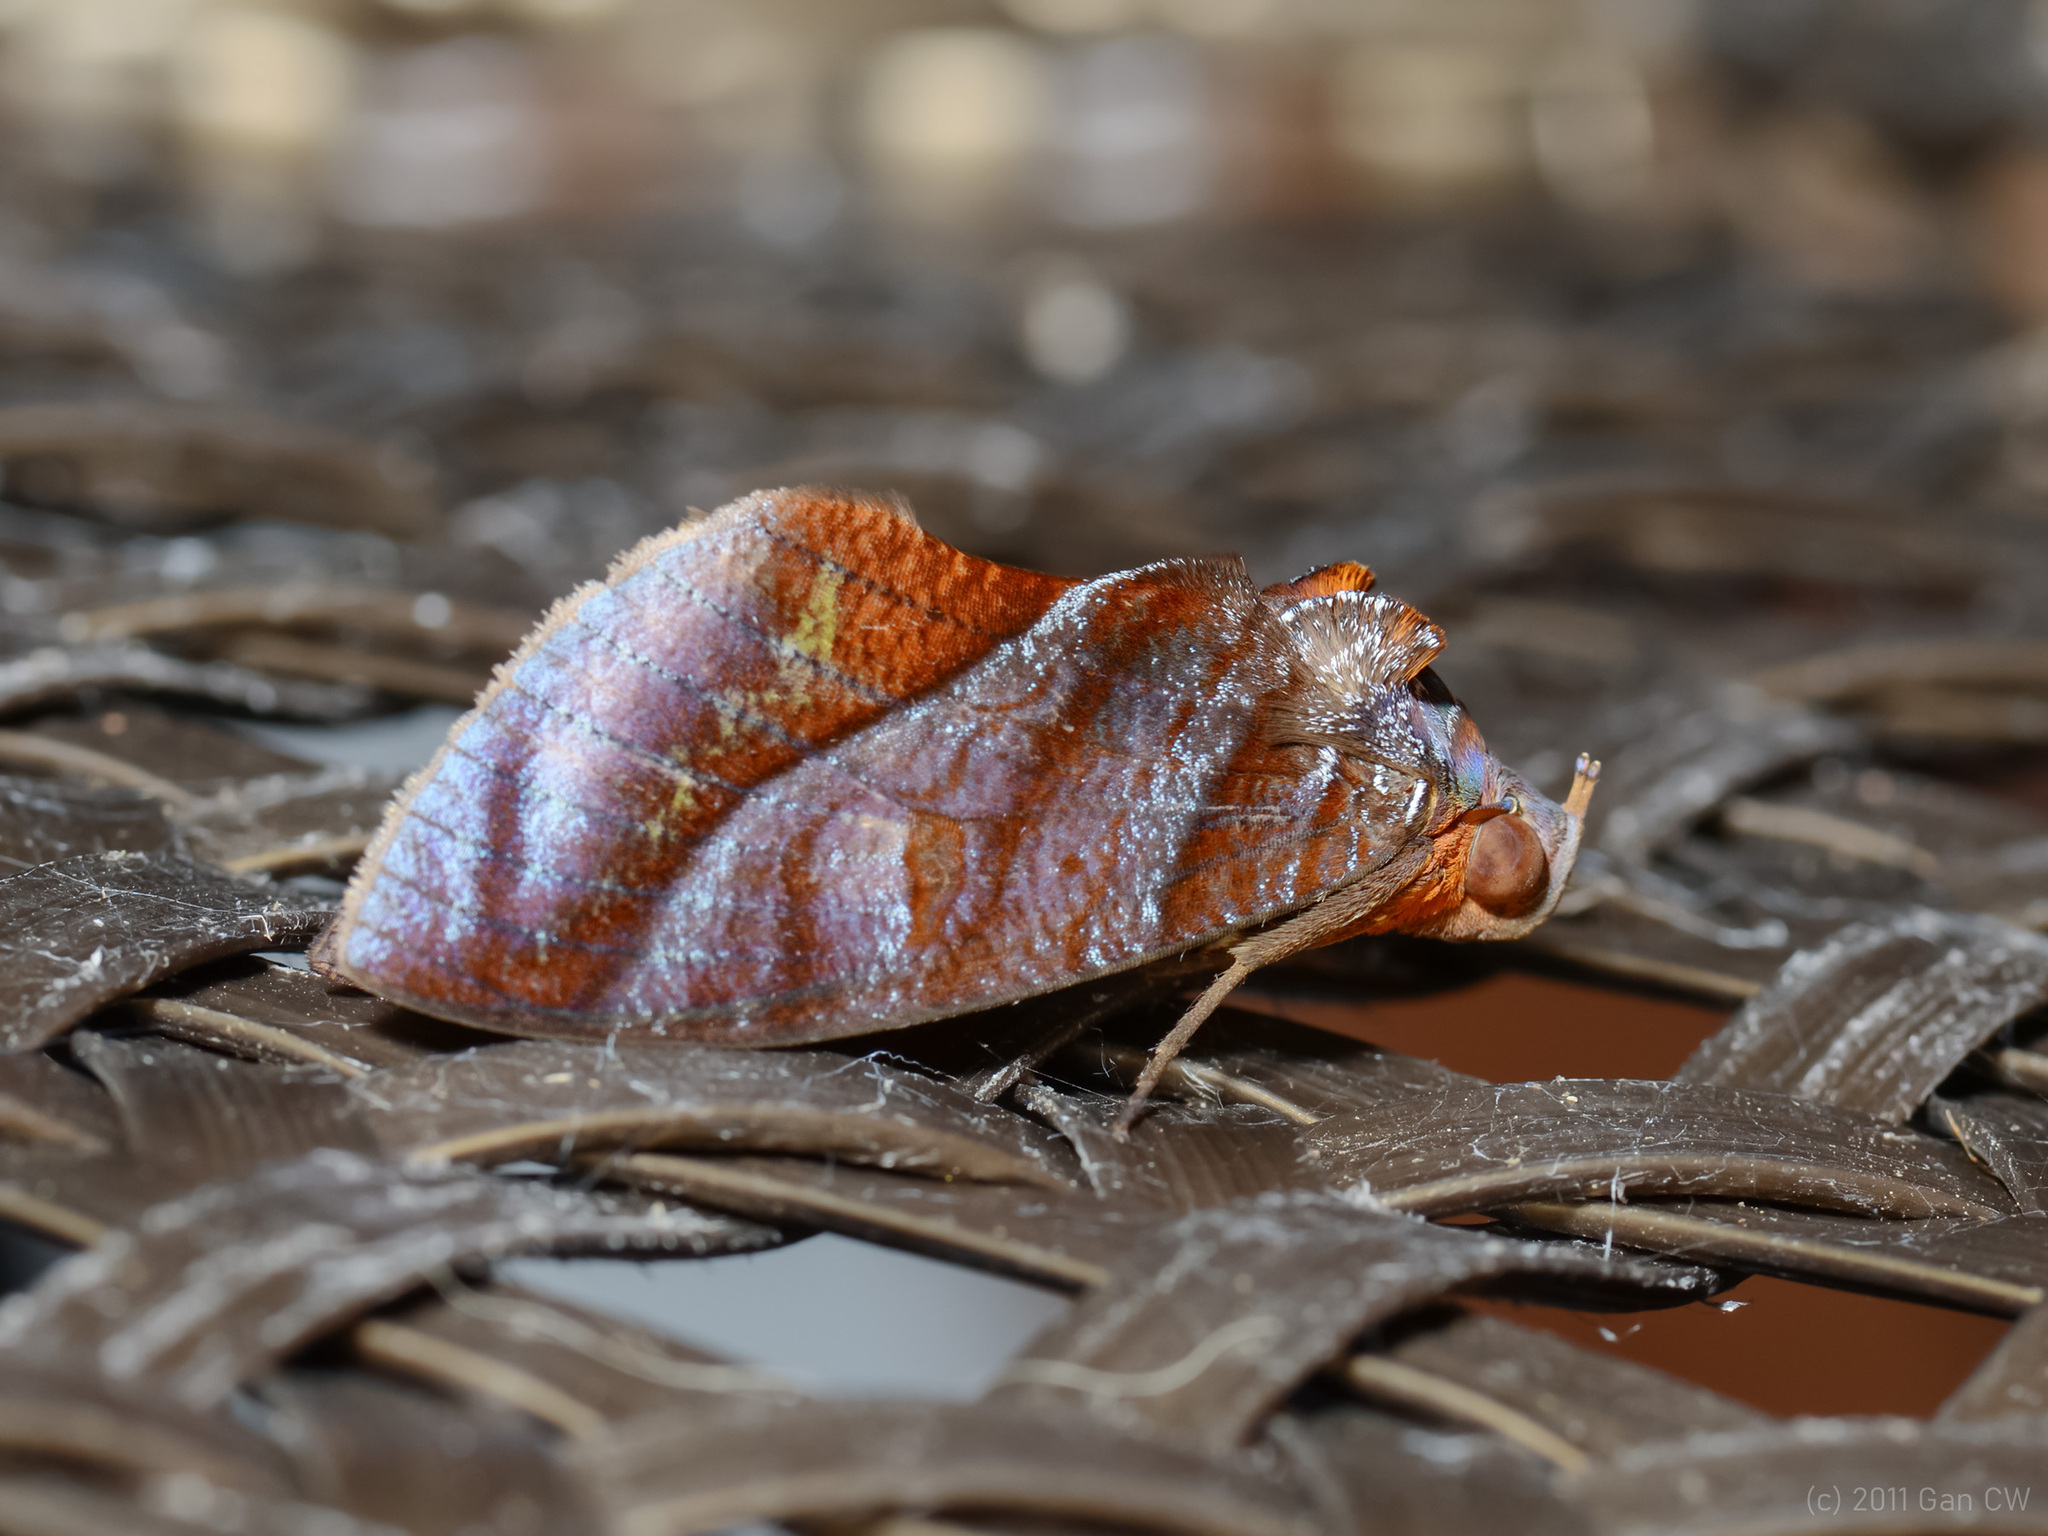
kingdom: Animalia
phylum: Arthropoda
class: Insecta
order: Lepidoptera
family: Erebidae
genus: Eudocima
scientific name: Eudocima homaena
